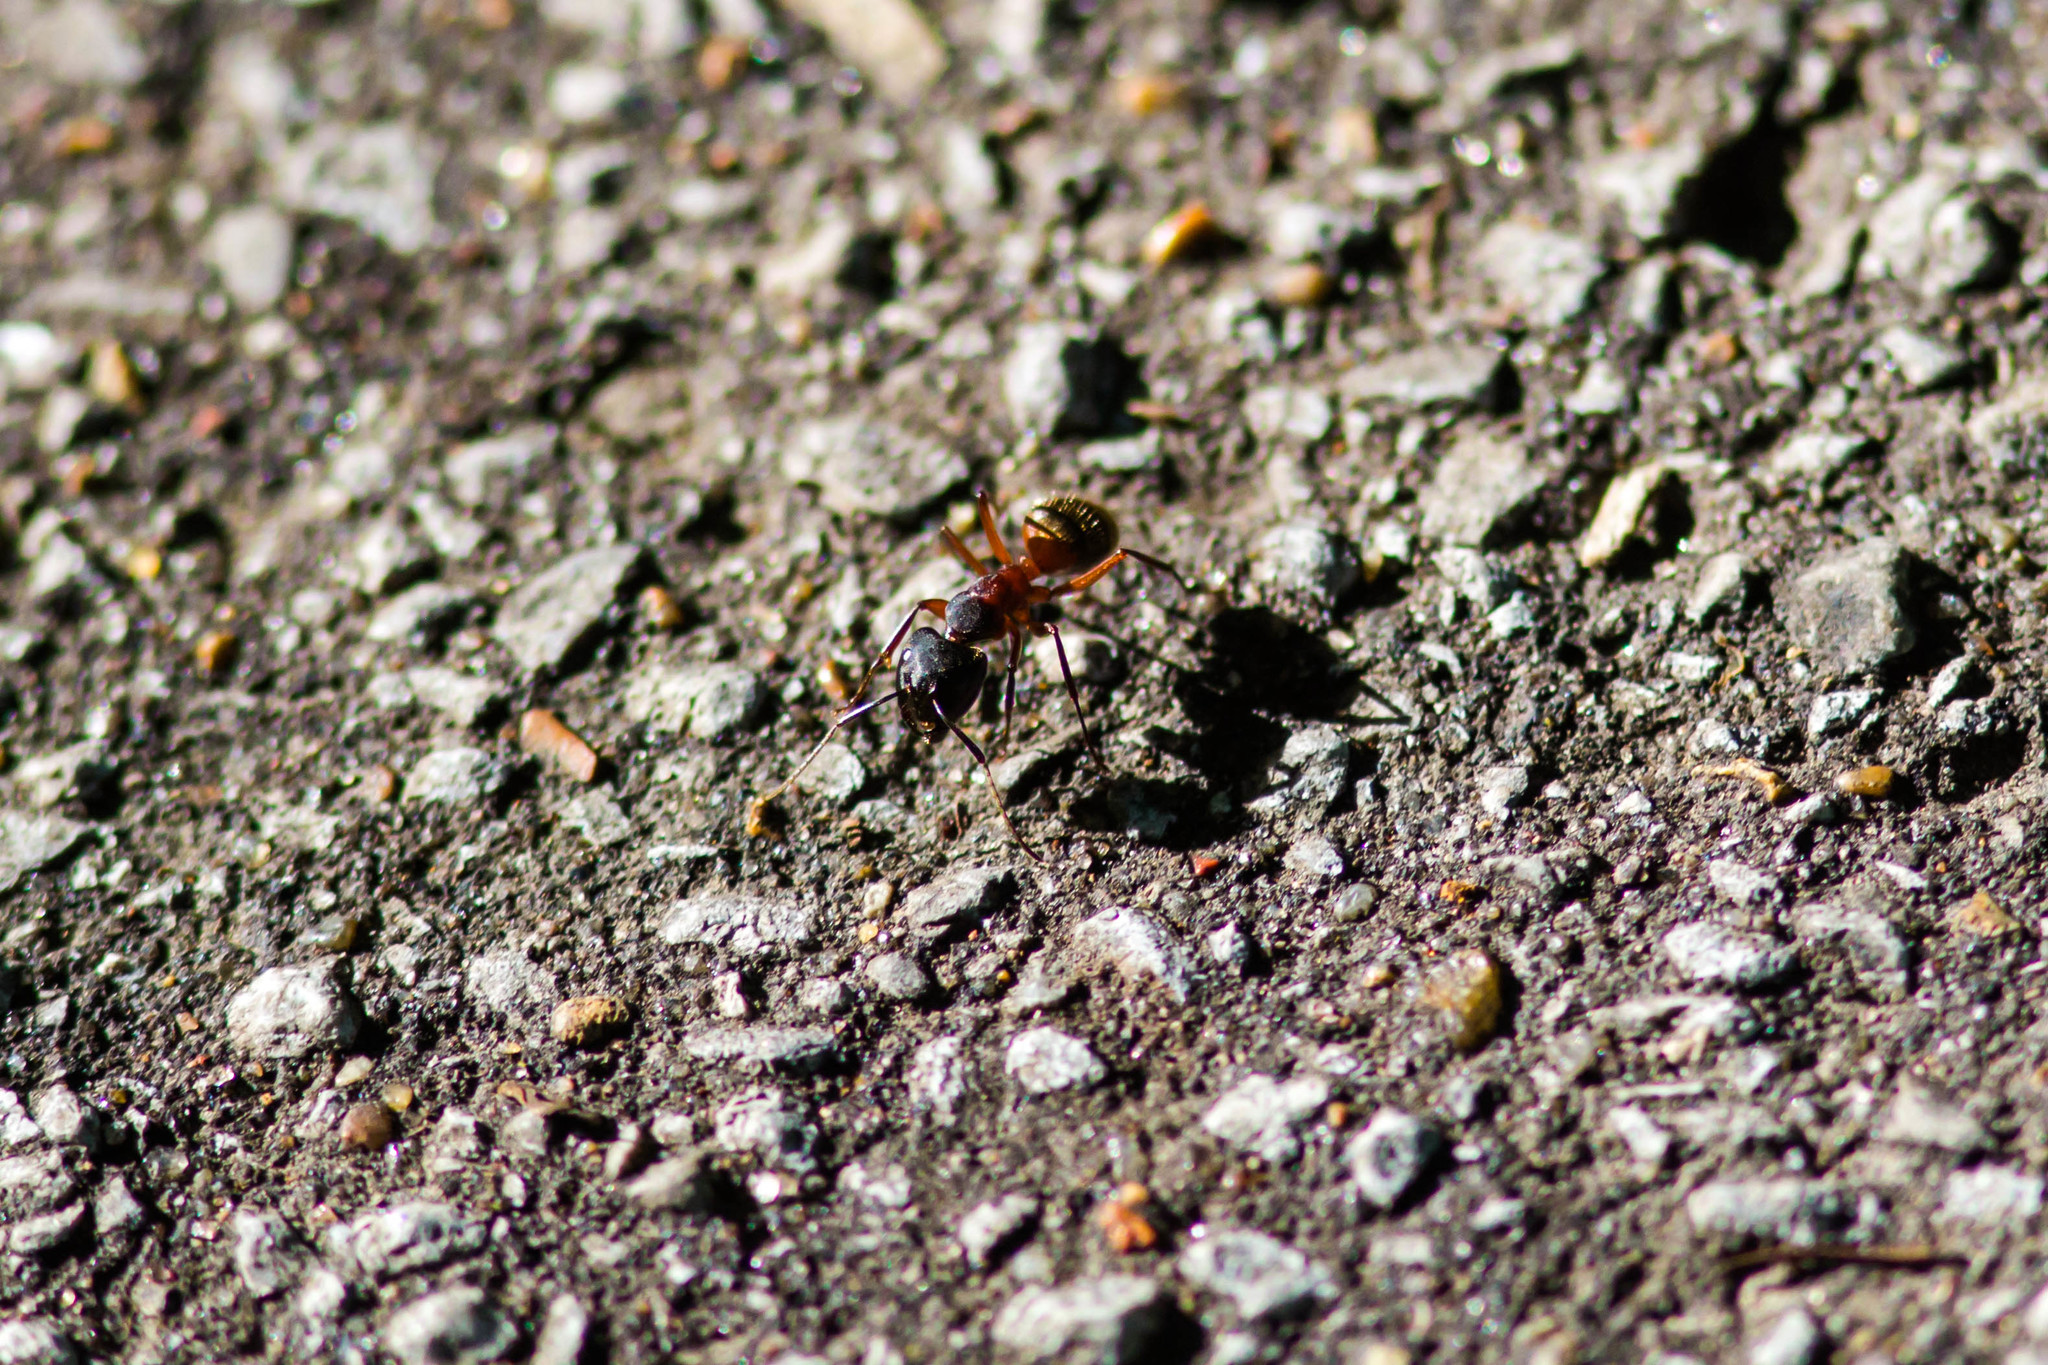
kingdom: Animalia
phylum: Arthropoda
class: Insecta
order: Hymenoptera
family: Formicidae
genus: Camponotus
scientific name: Camponotus chromaiodes
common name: Red carpenter ant
